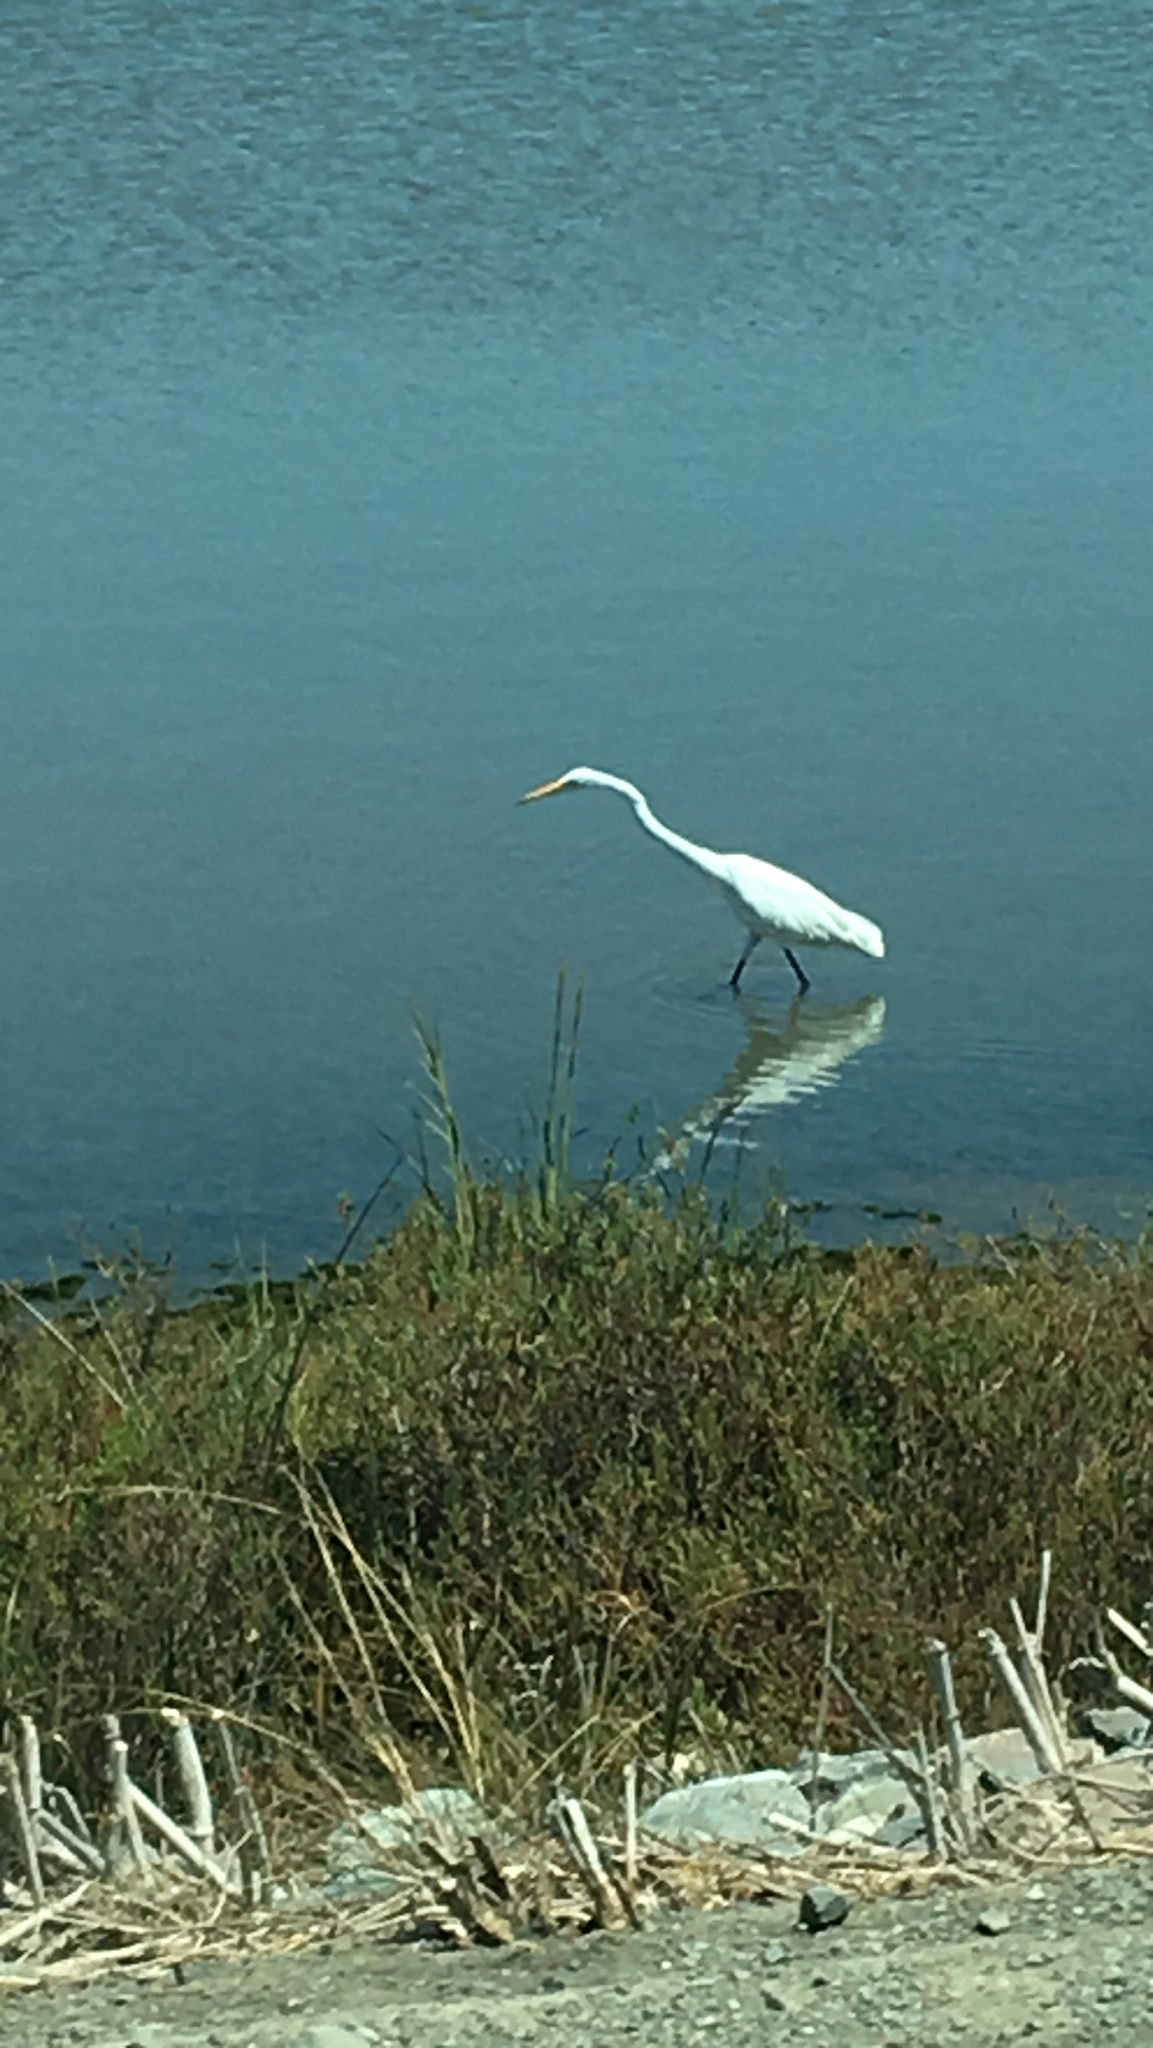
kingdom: Animalia
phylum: Chordata
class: Aves
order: Pelecaniformes
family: Ardeidae
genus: Ardea
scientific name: Ardea alba
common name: Great egret
